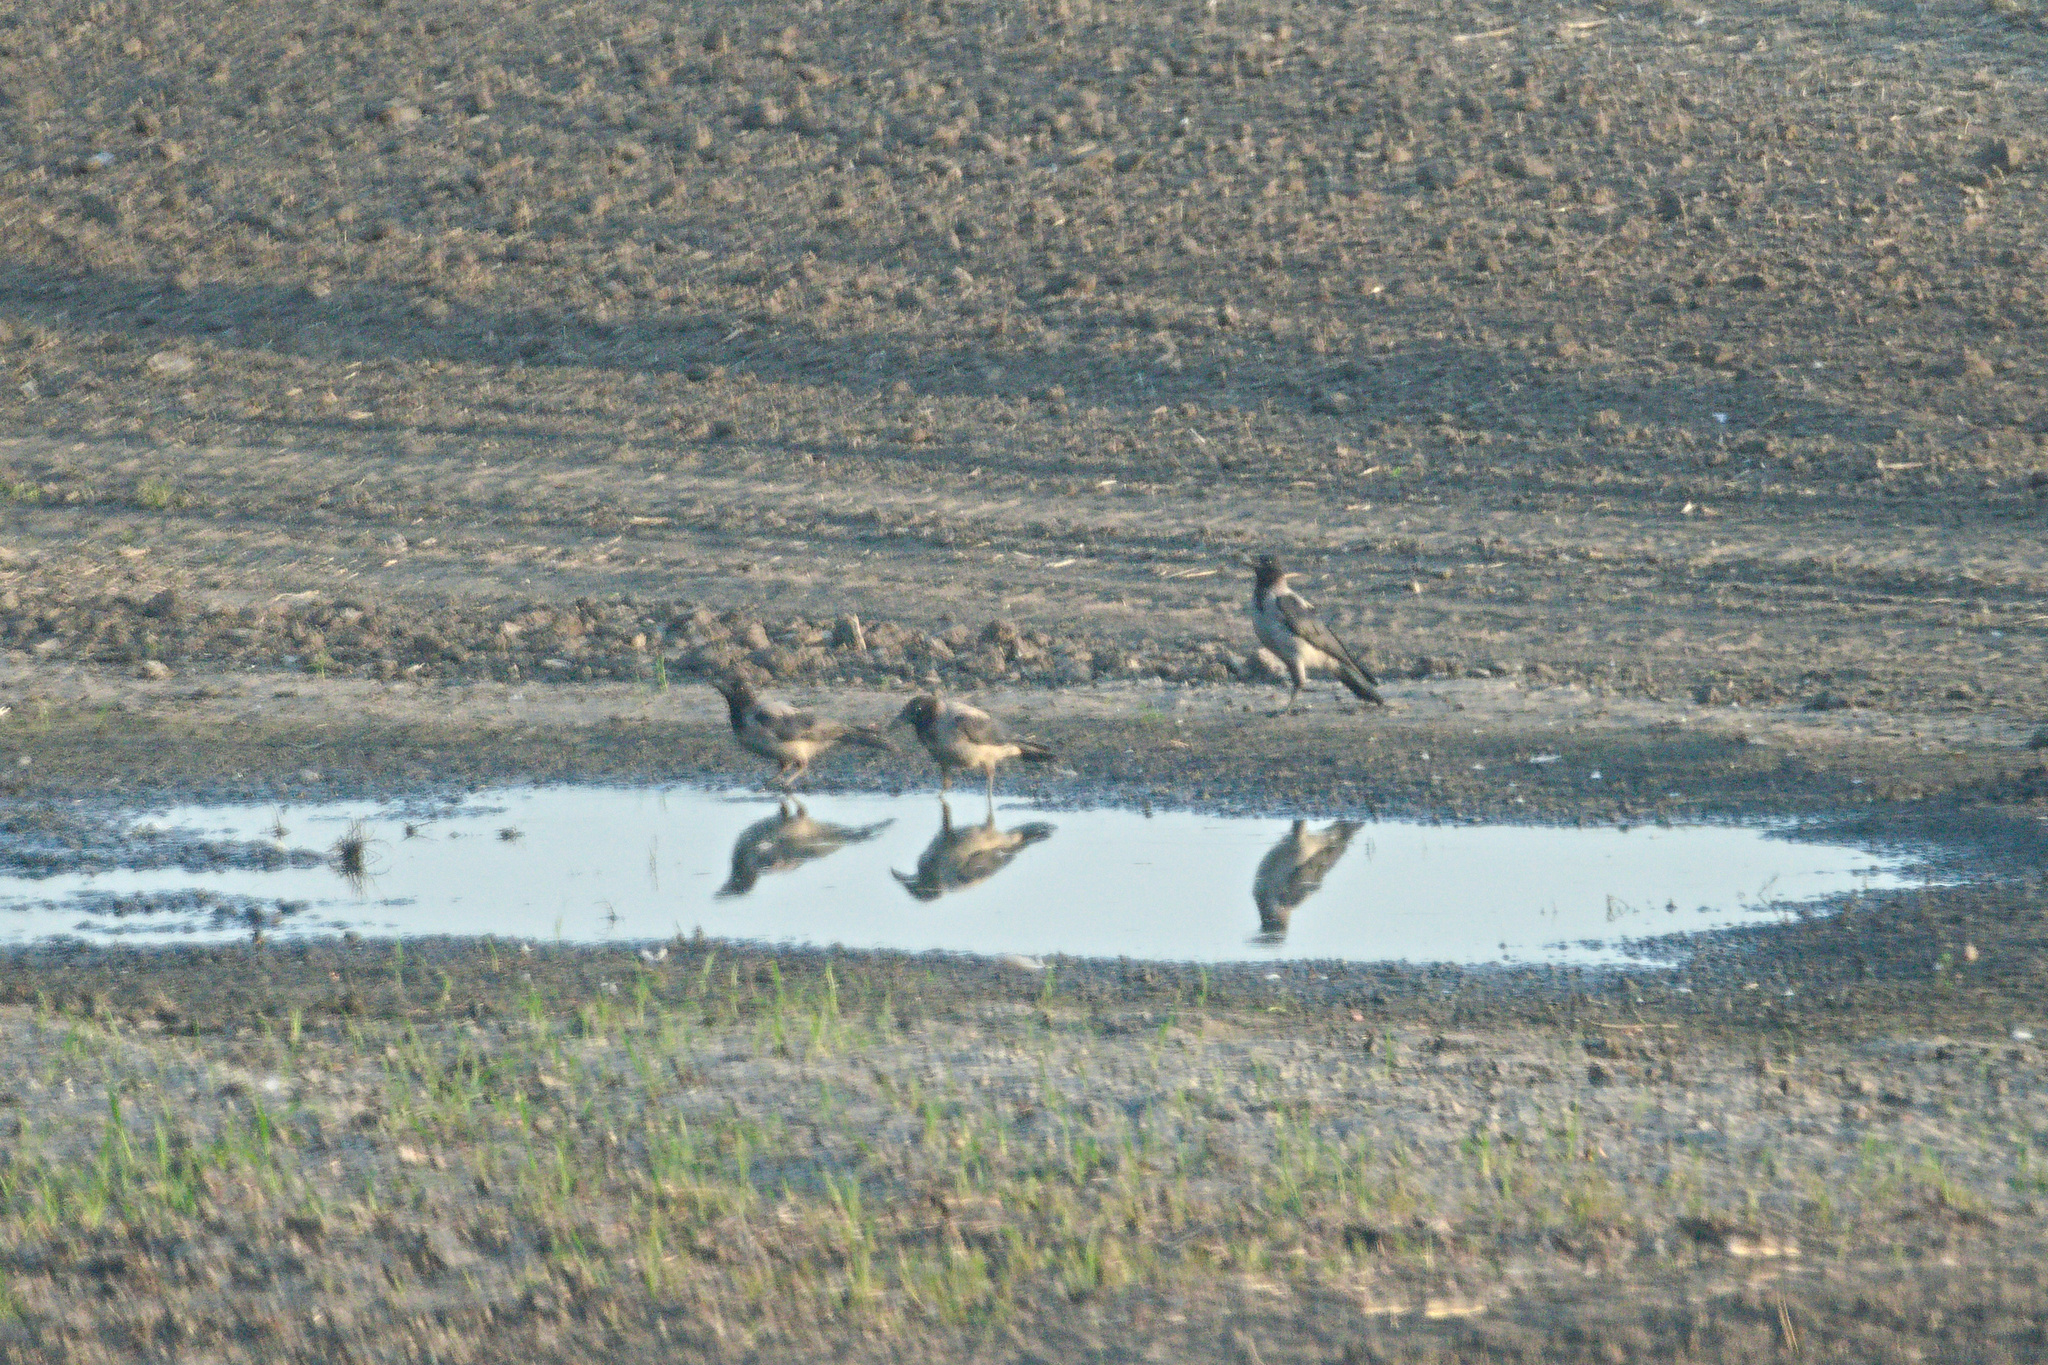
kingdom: Animalia
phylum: Chordata
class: Aves
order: Passeriformes
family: Corvidae
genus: Corvus
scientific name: Corvus cornix
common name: Hooded crow
